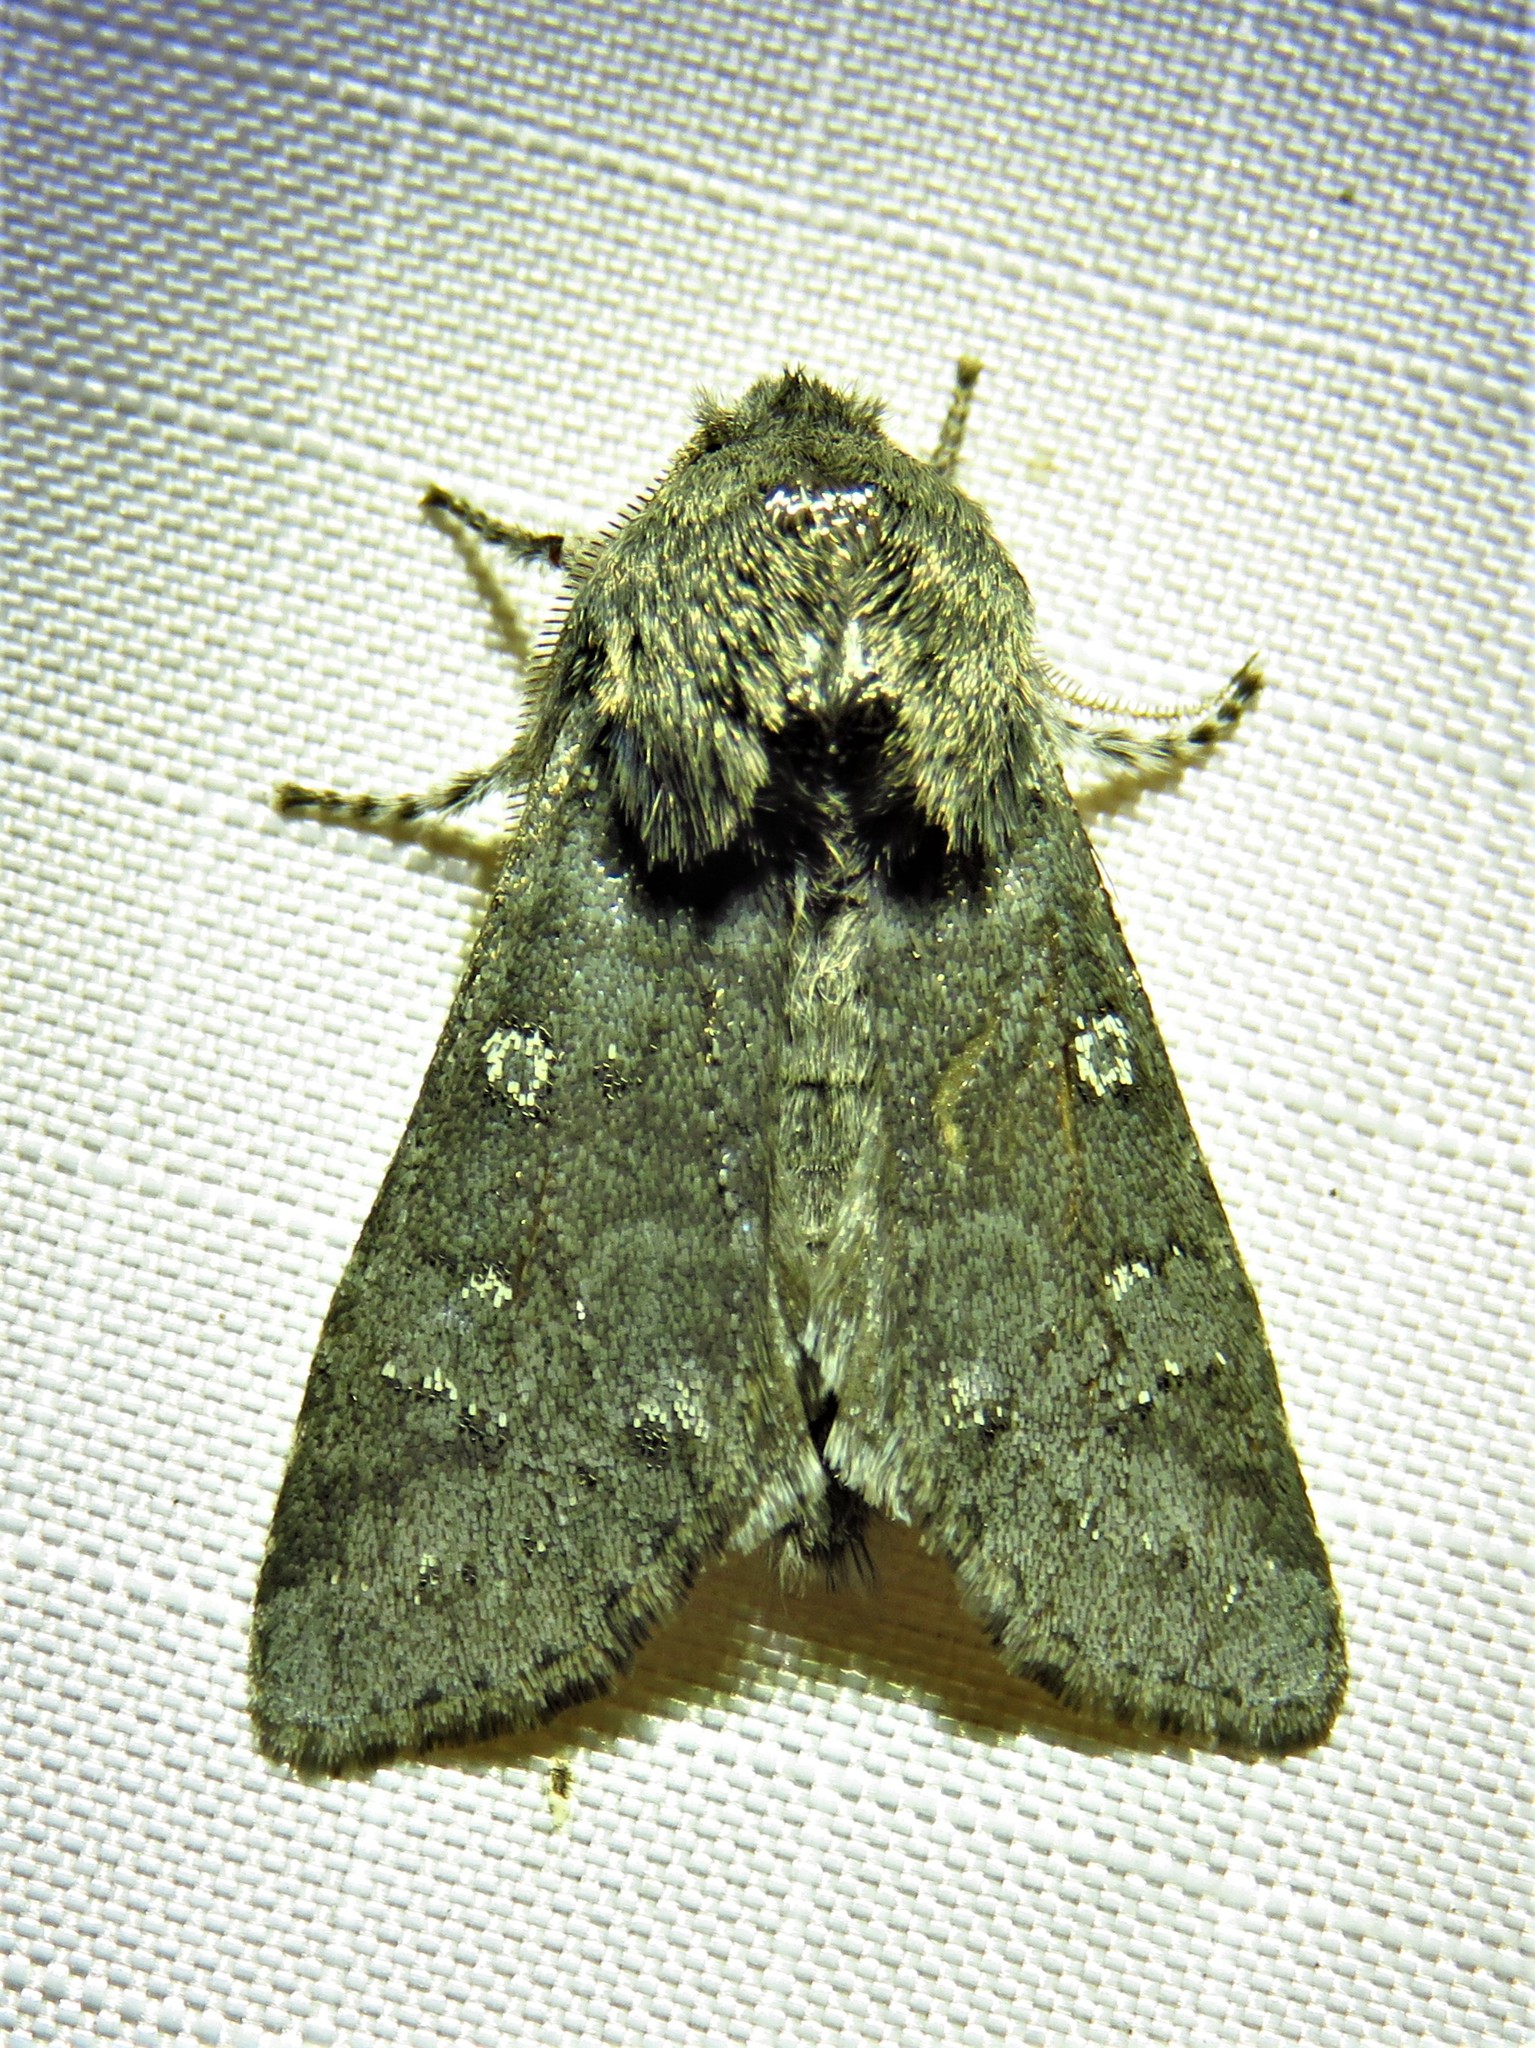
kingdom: Animalia
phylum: Arthropoda
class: Insecta
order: Lepidoptera
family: Noctuidae
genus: Psaphida
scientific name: Psaphida rolandi
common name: Roland's sallow
